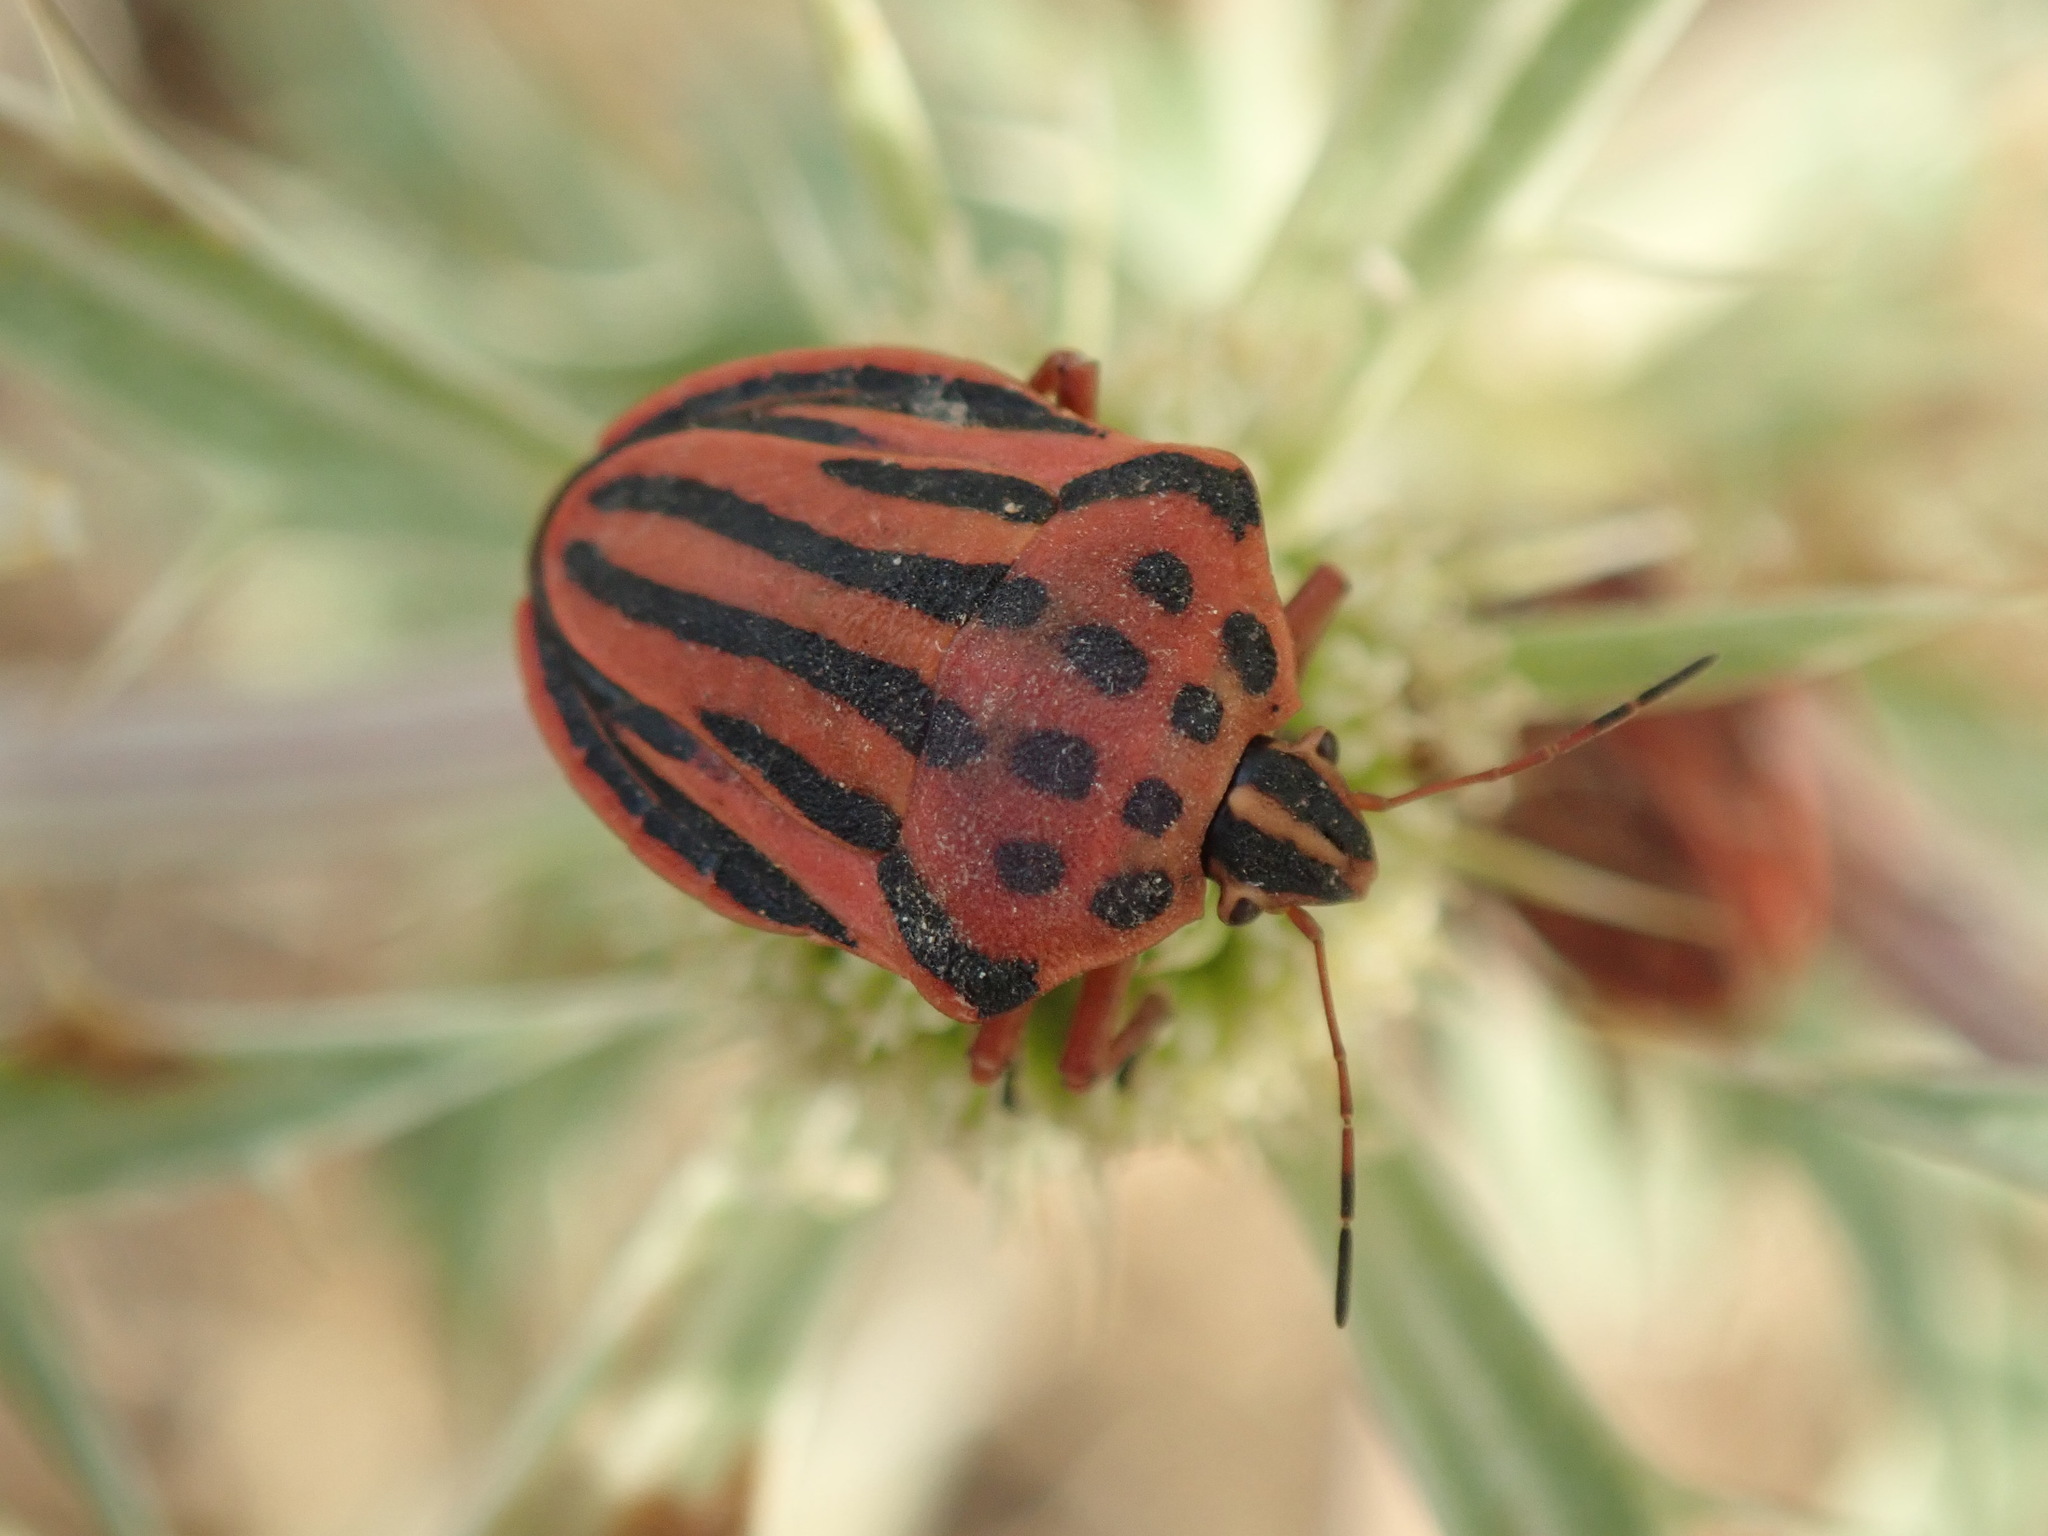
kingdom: Animalia
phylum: Arthropoda
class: Insecta
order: Hemiptera
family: Pentatomidae
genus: Graphosoma
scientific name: Graphosoma semipunctatum
